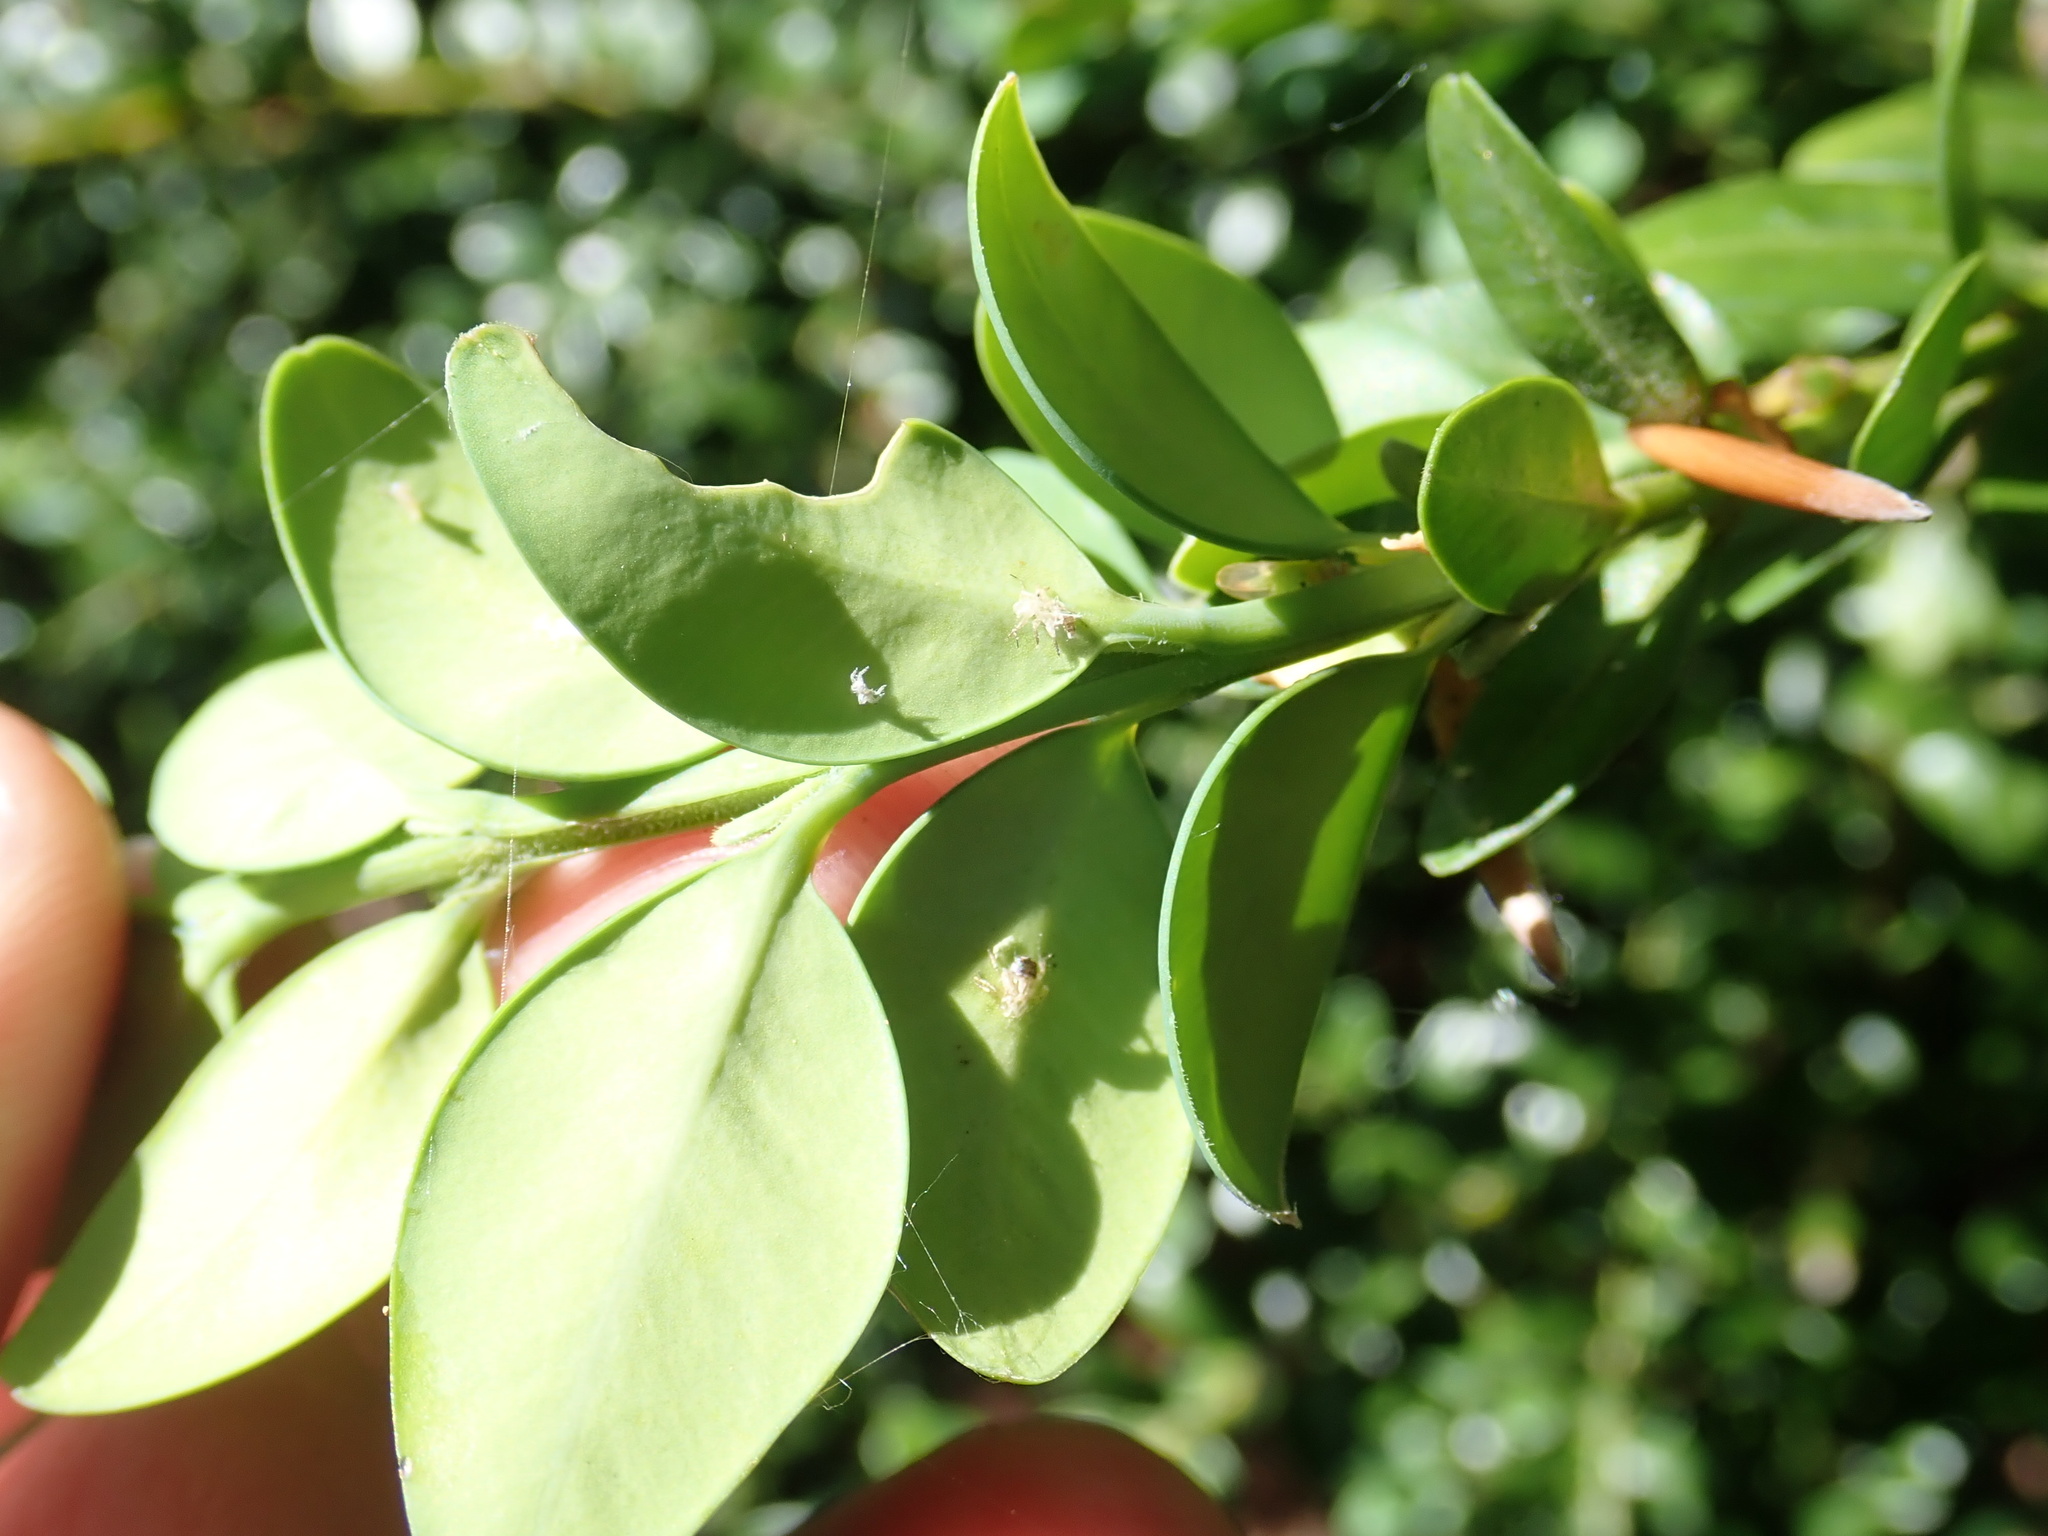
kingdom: Plantae
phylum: Tracheophyta
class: Magnoliopsida
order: Buxales
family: Buxaceae
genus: Buxus
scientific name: Buxus sempervirens
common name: Box
